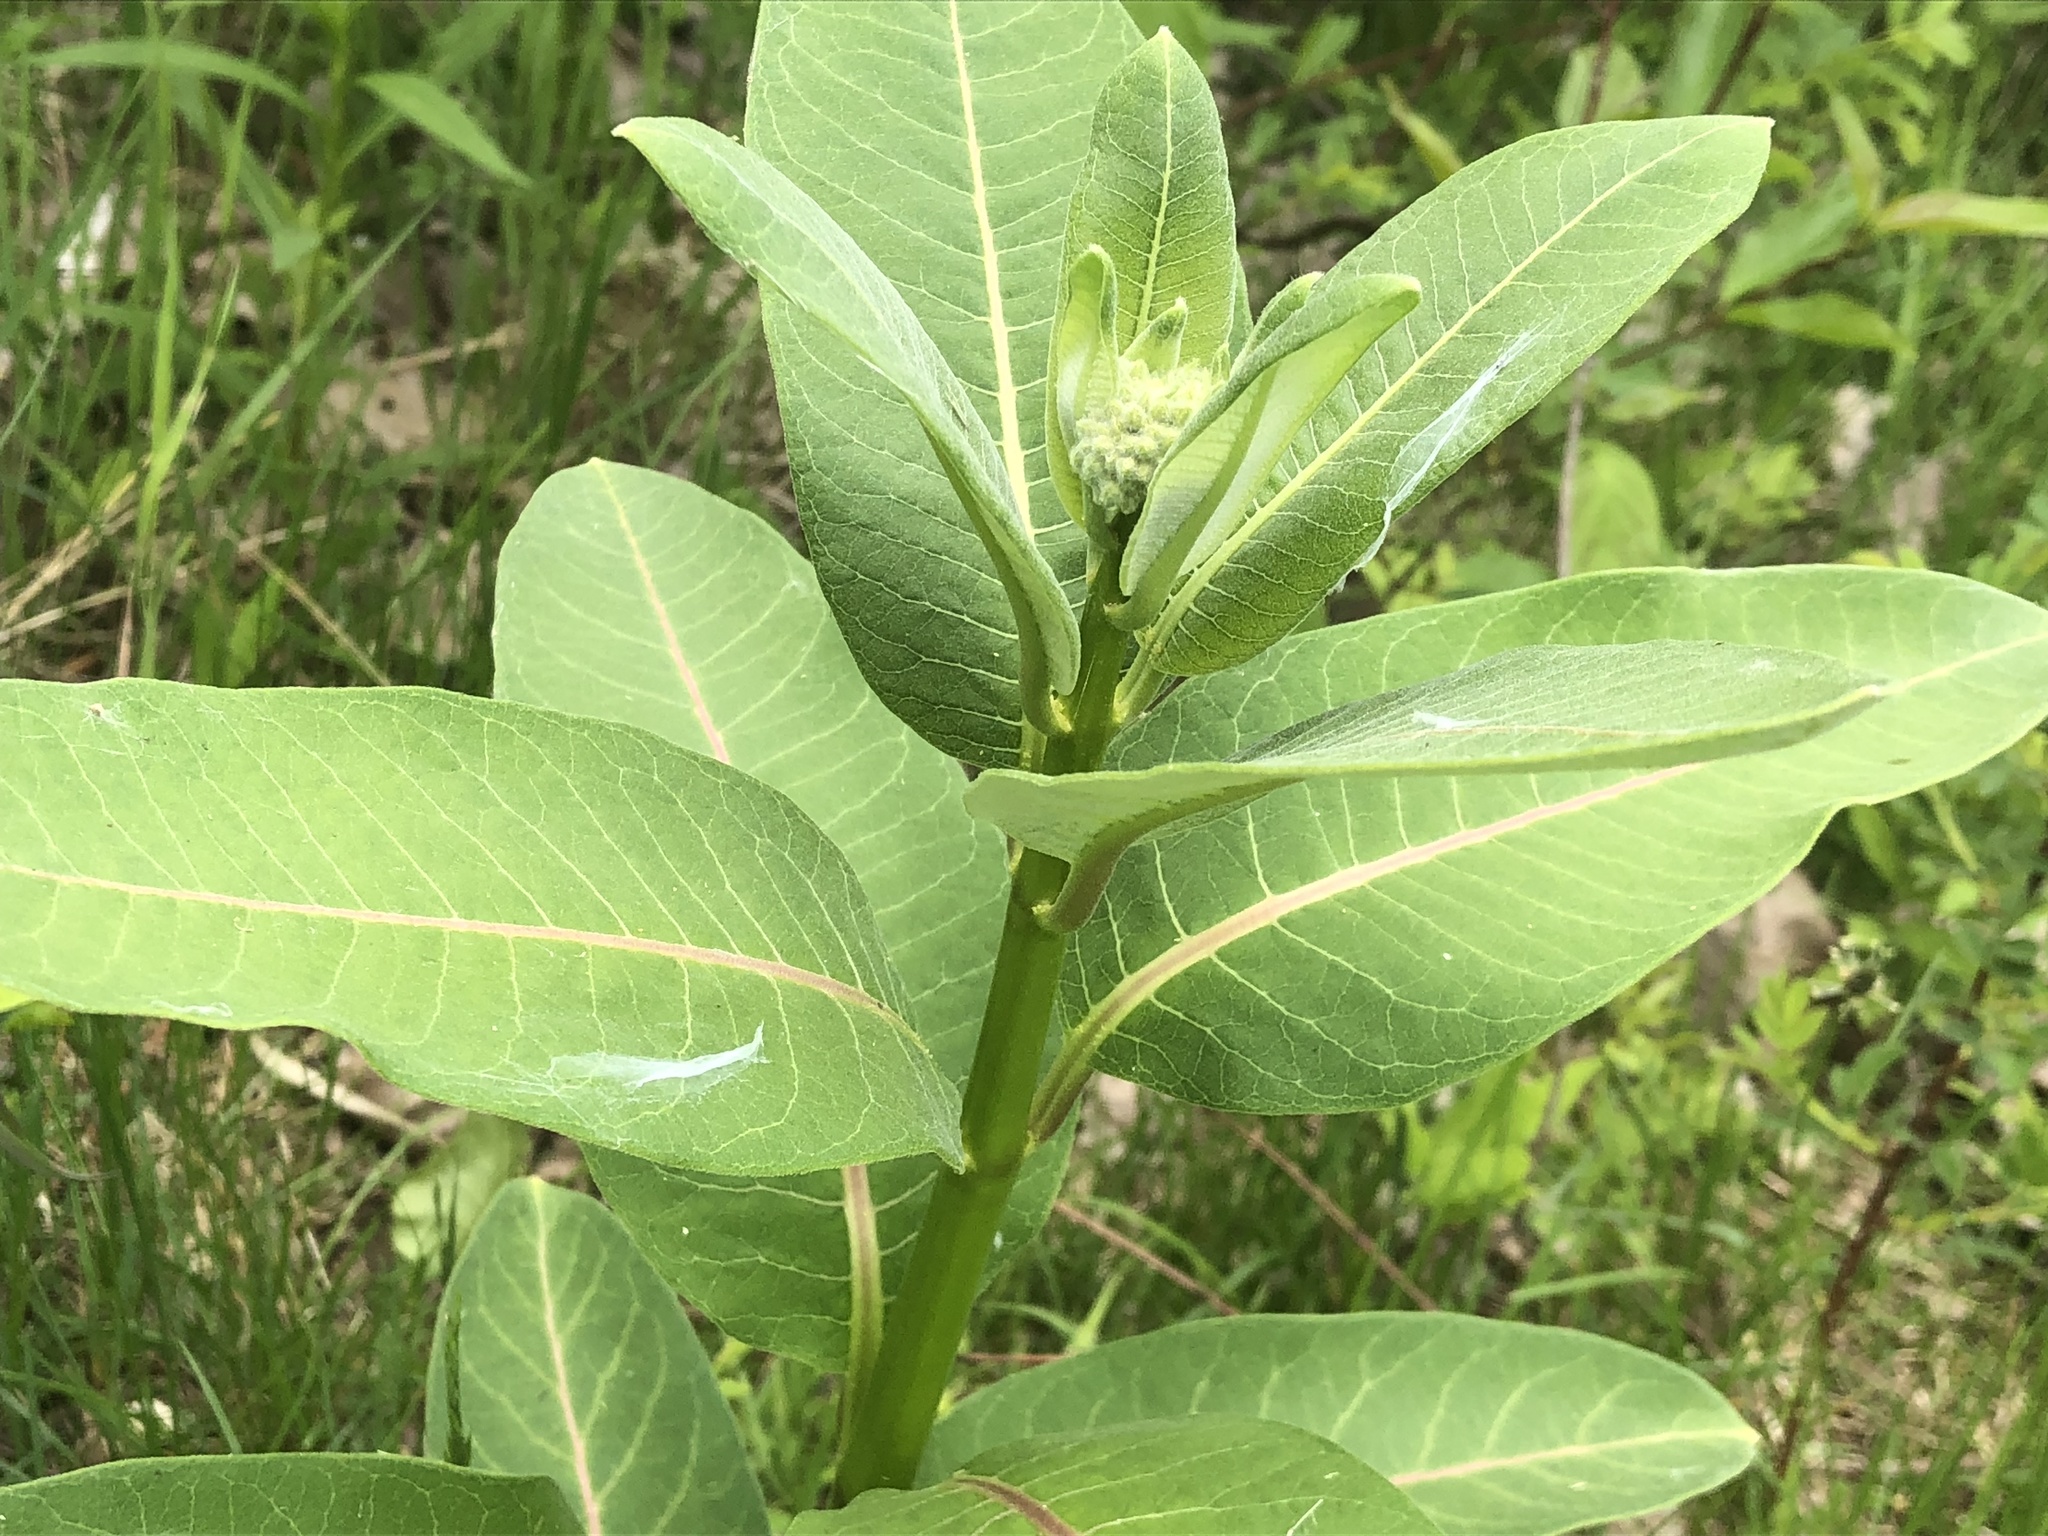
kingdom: Plantae
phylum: Tracheophyta
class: Magnoliopsida
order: Gentianales
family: Apocynaceae
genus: Asclepias
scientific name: Asclepias syriaca
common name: Common milkweed
